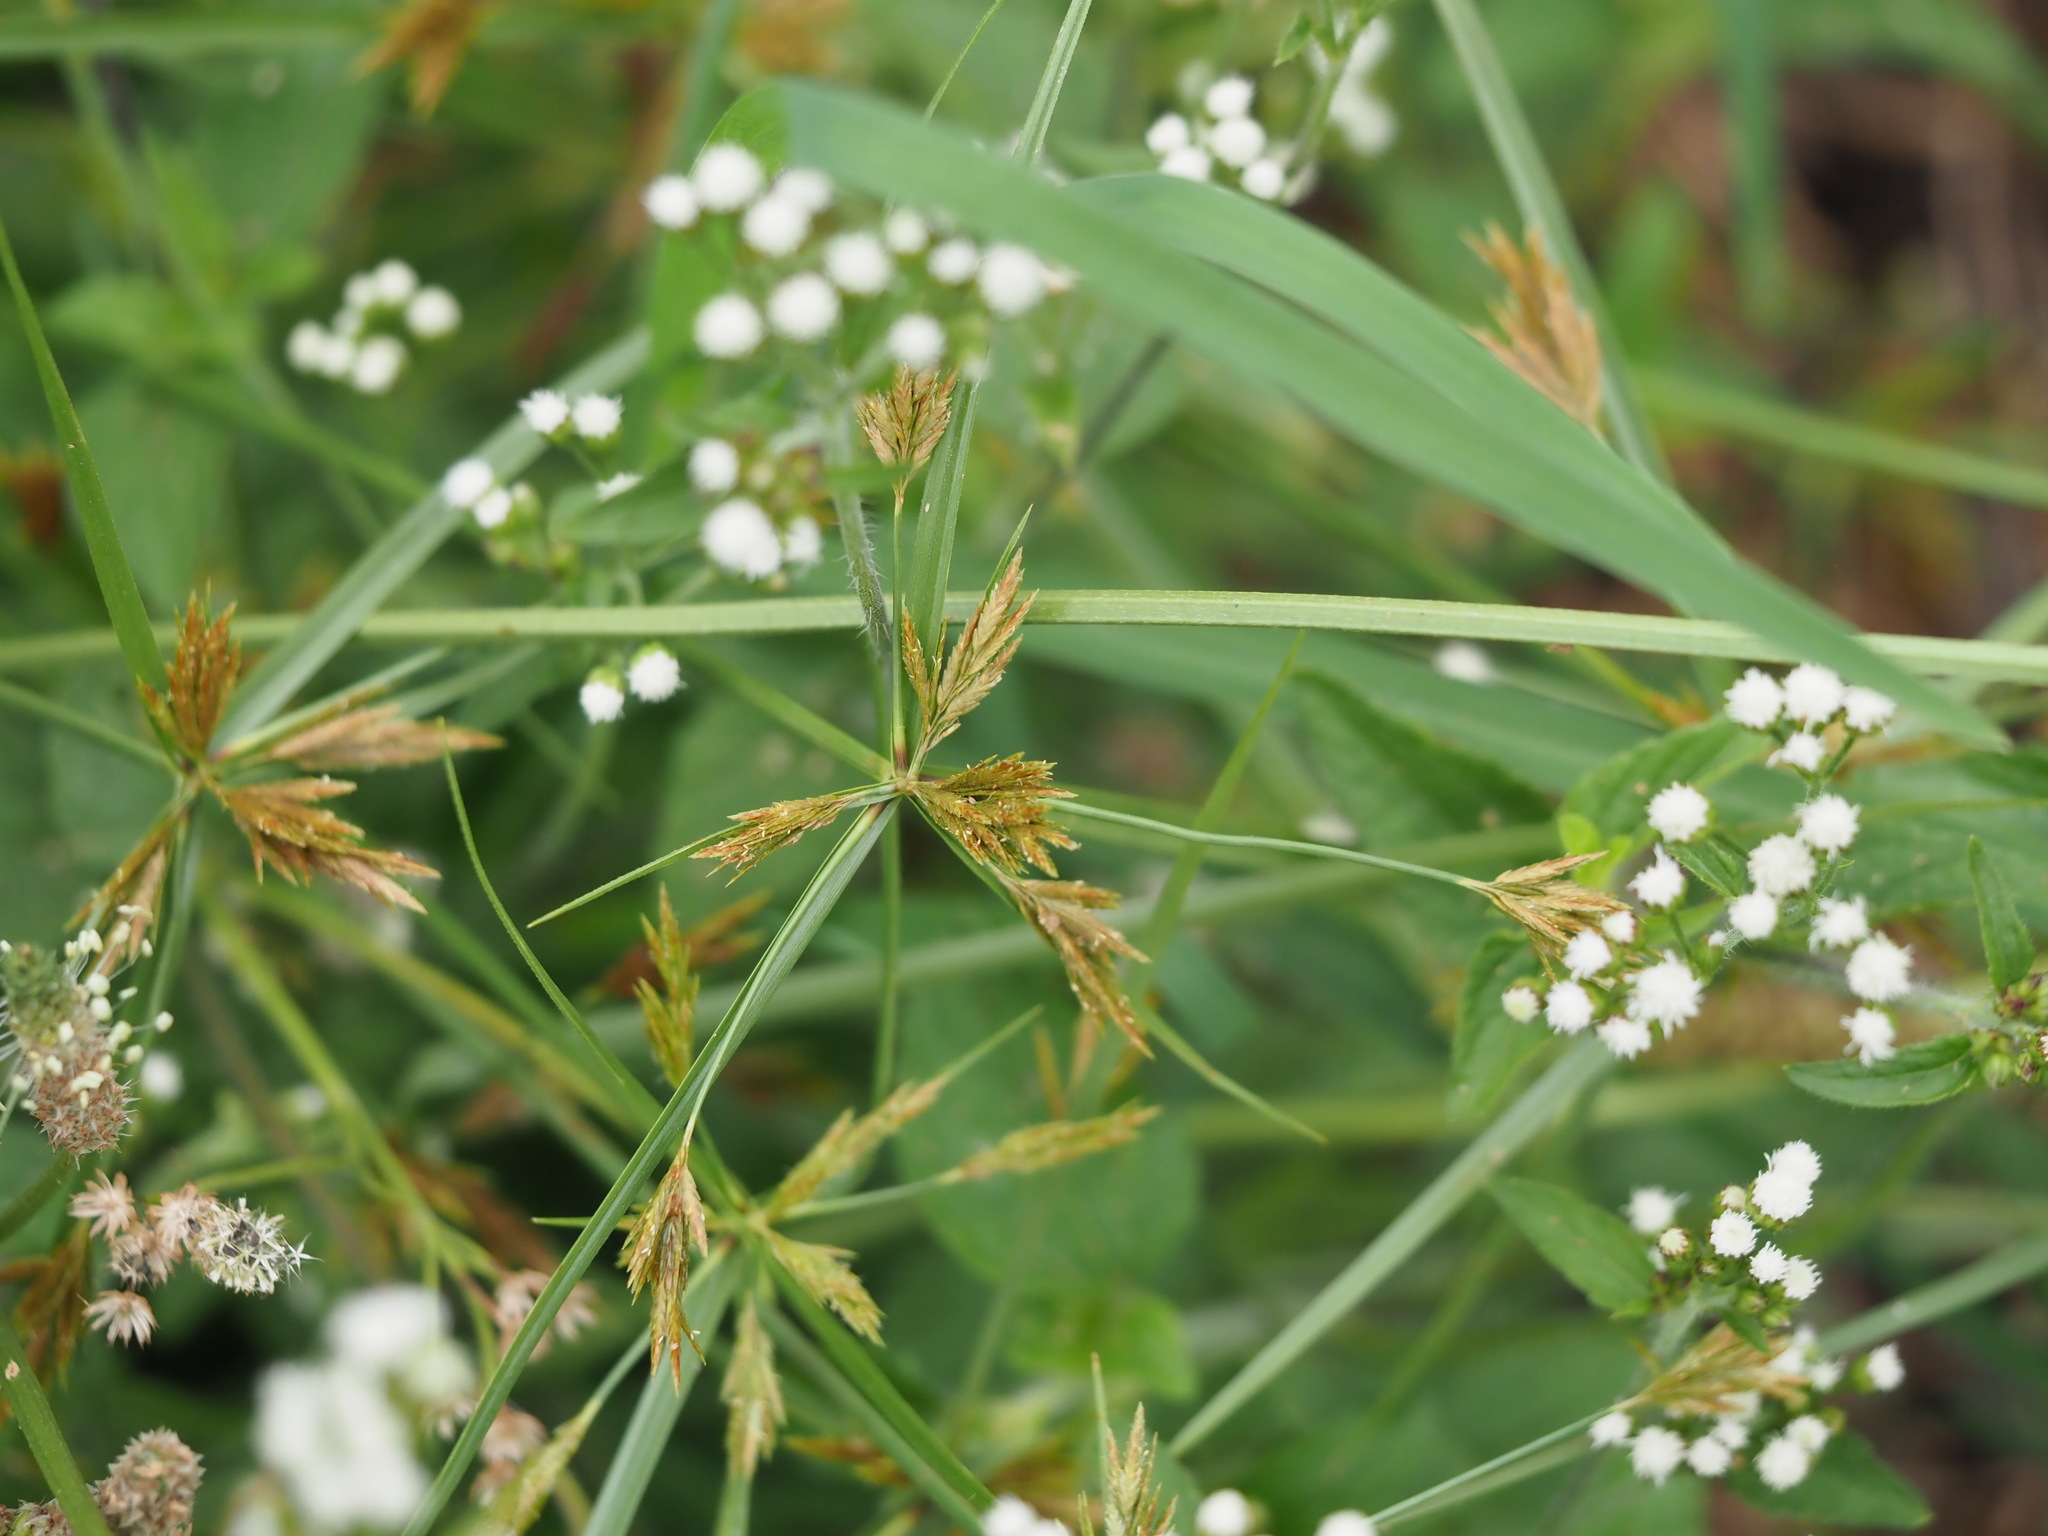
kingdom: Plantae
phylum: Tracheophyta
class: Liliopsida
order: Poales
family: Cyperaceae
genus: Cyperus
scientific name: Cyperus polystachyos
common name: Bunchy flat sedge
